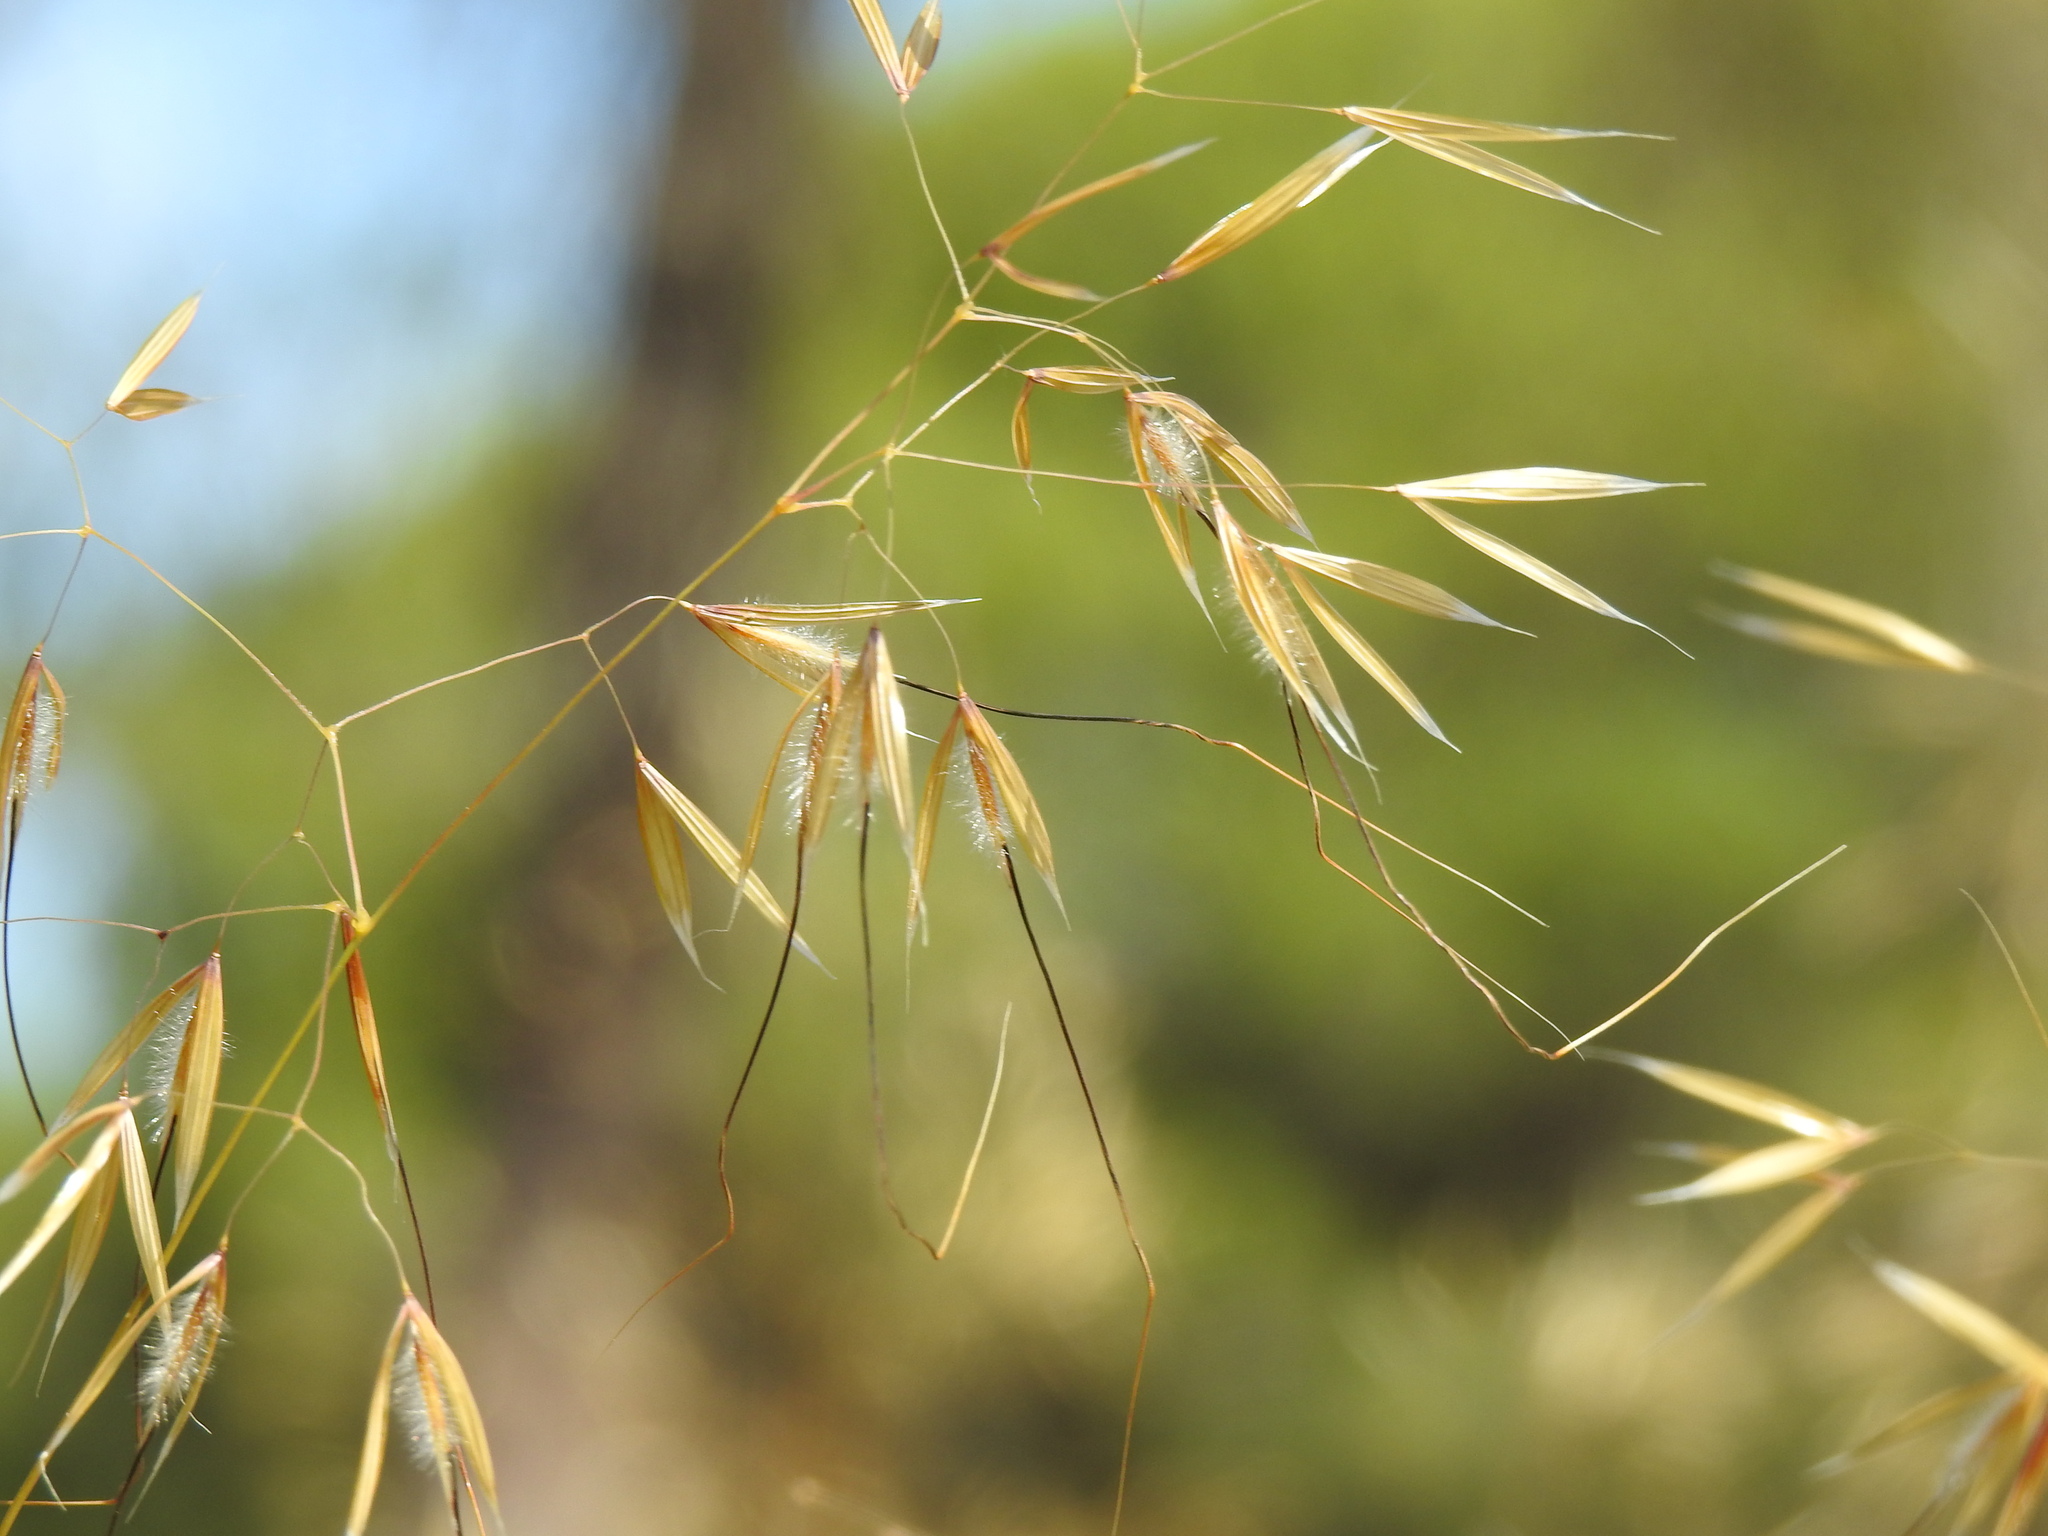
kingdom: Plantae
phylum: Tracheophyta
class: Liliopsida
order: Poales
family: Poaceae
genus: Celtica
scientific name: Celtica gigantea
